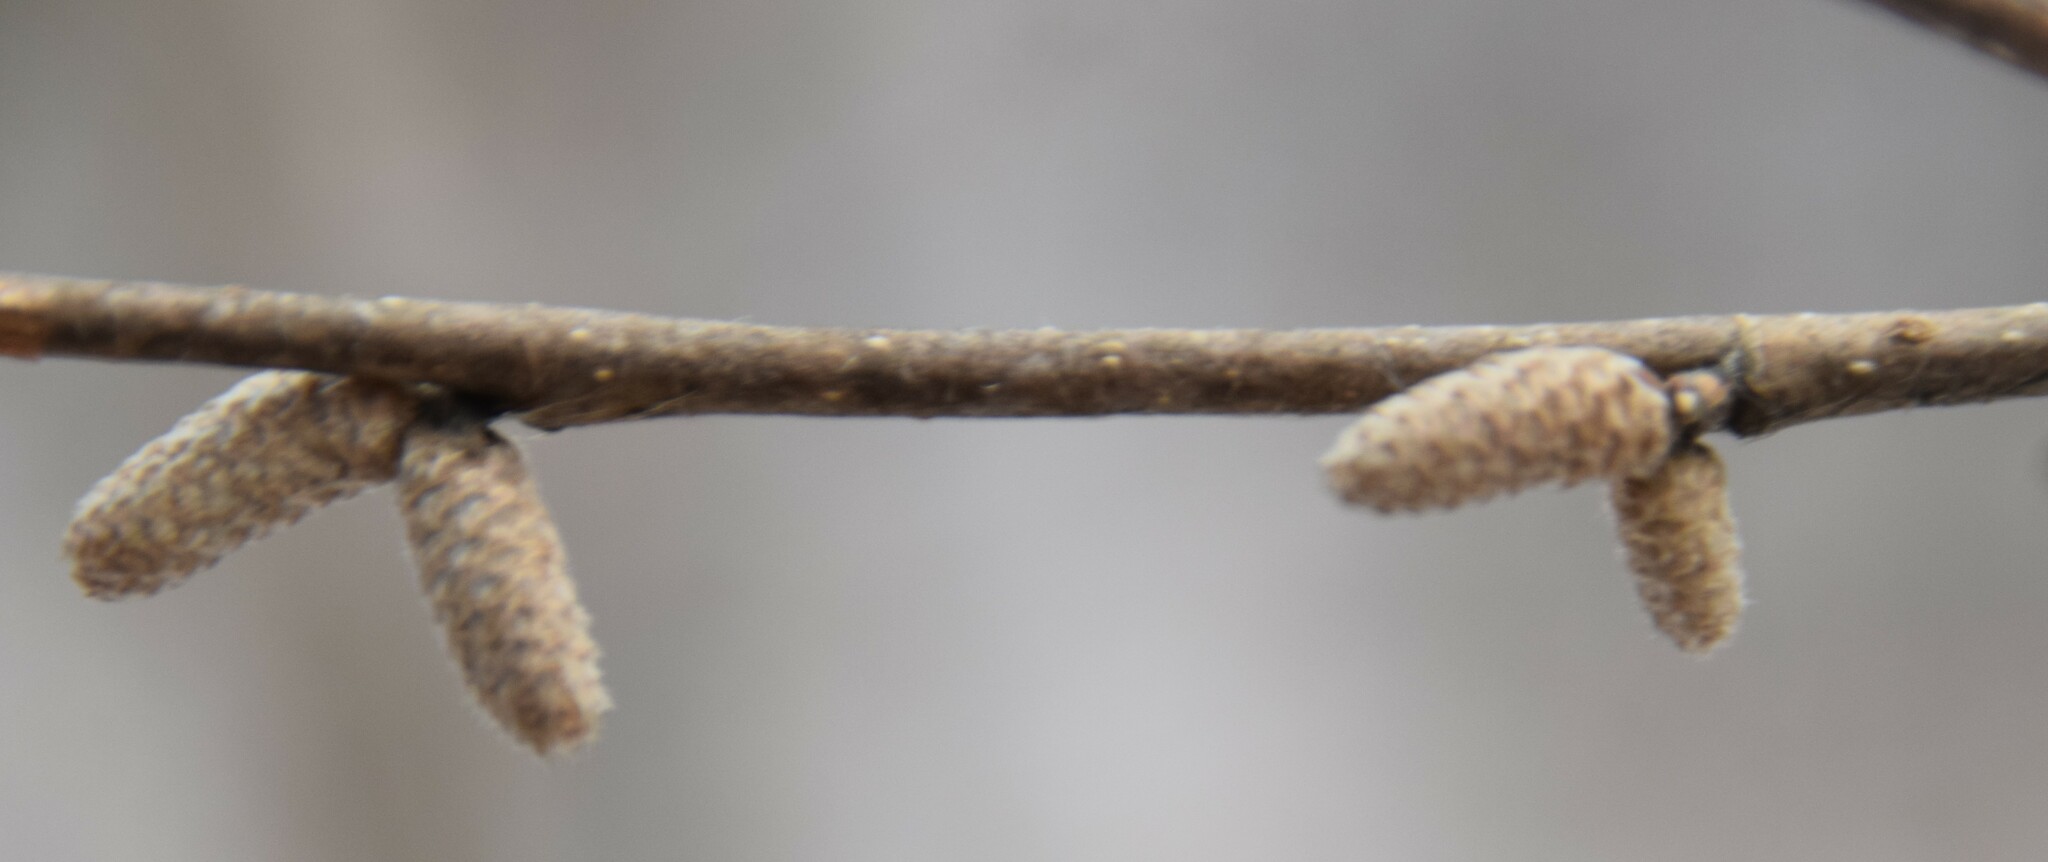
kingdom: Plantae
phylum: Tracheophyta
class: Magnoliopsida
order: Fagales
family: Betulaceae
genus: Corylus
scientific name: Corylus cornuta
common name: Beaked hazel
